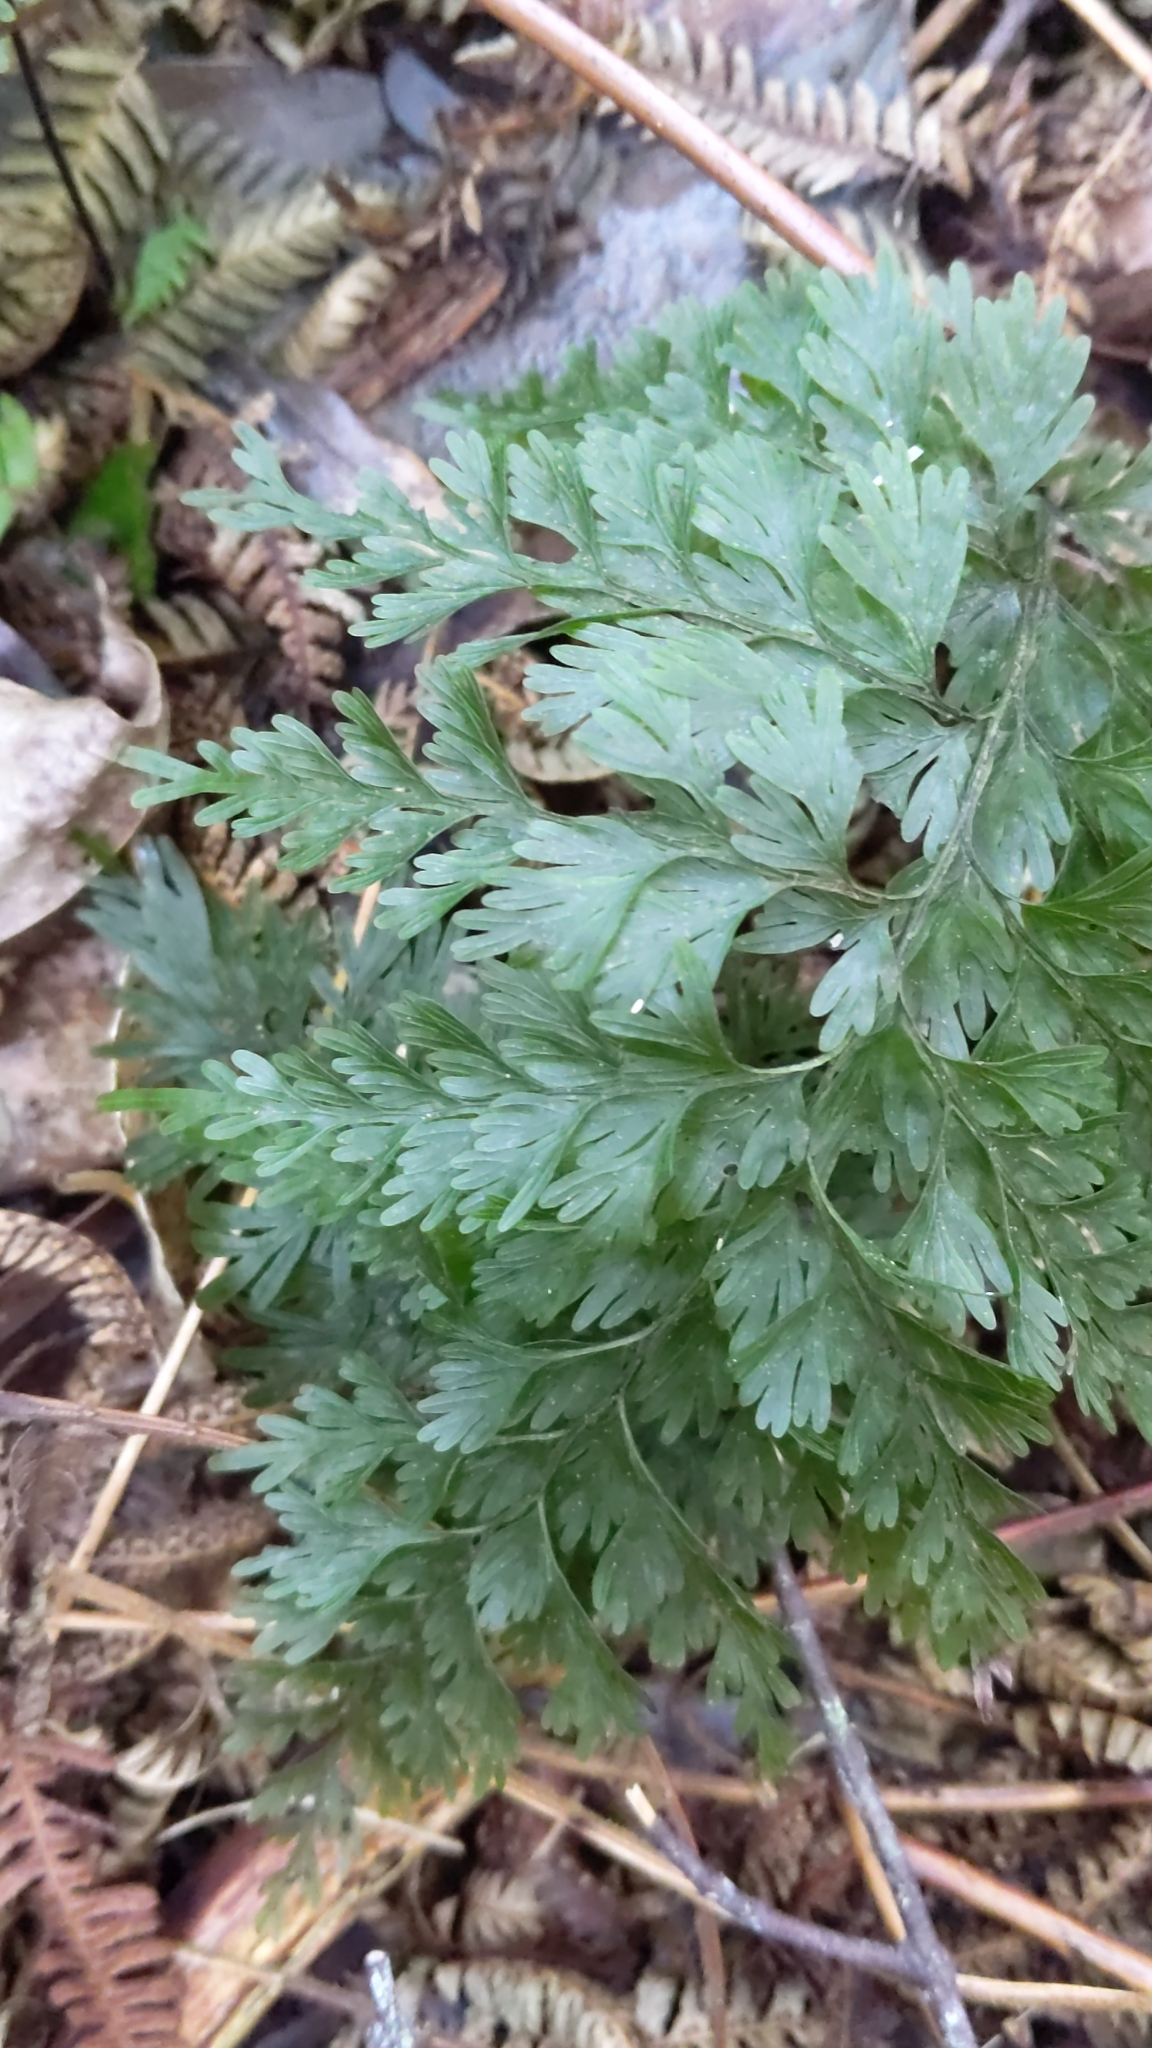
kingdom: Plantae
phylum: Tracheophyta
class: Polypodiopsida
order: Hymenophyllales
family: Hymenophyllaceae
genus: Hymenophyllum
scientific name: Hymenophyllum demissum
